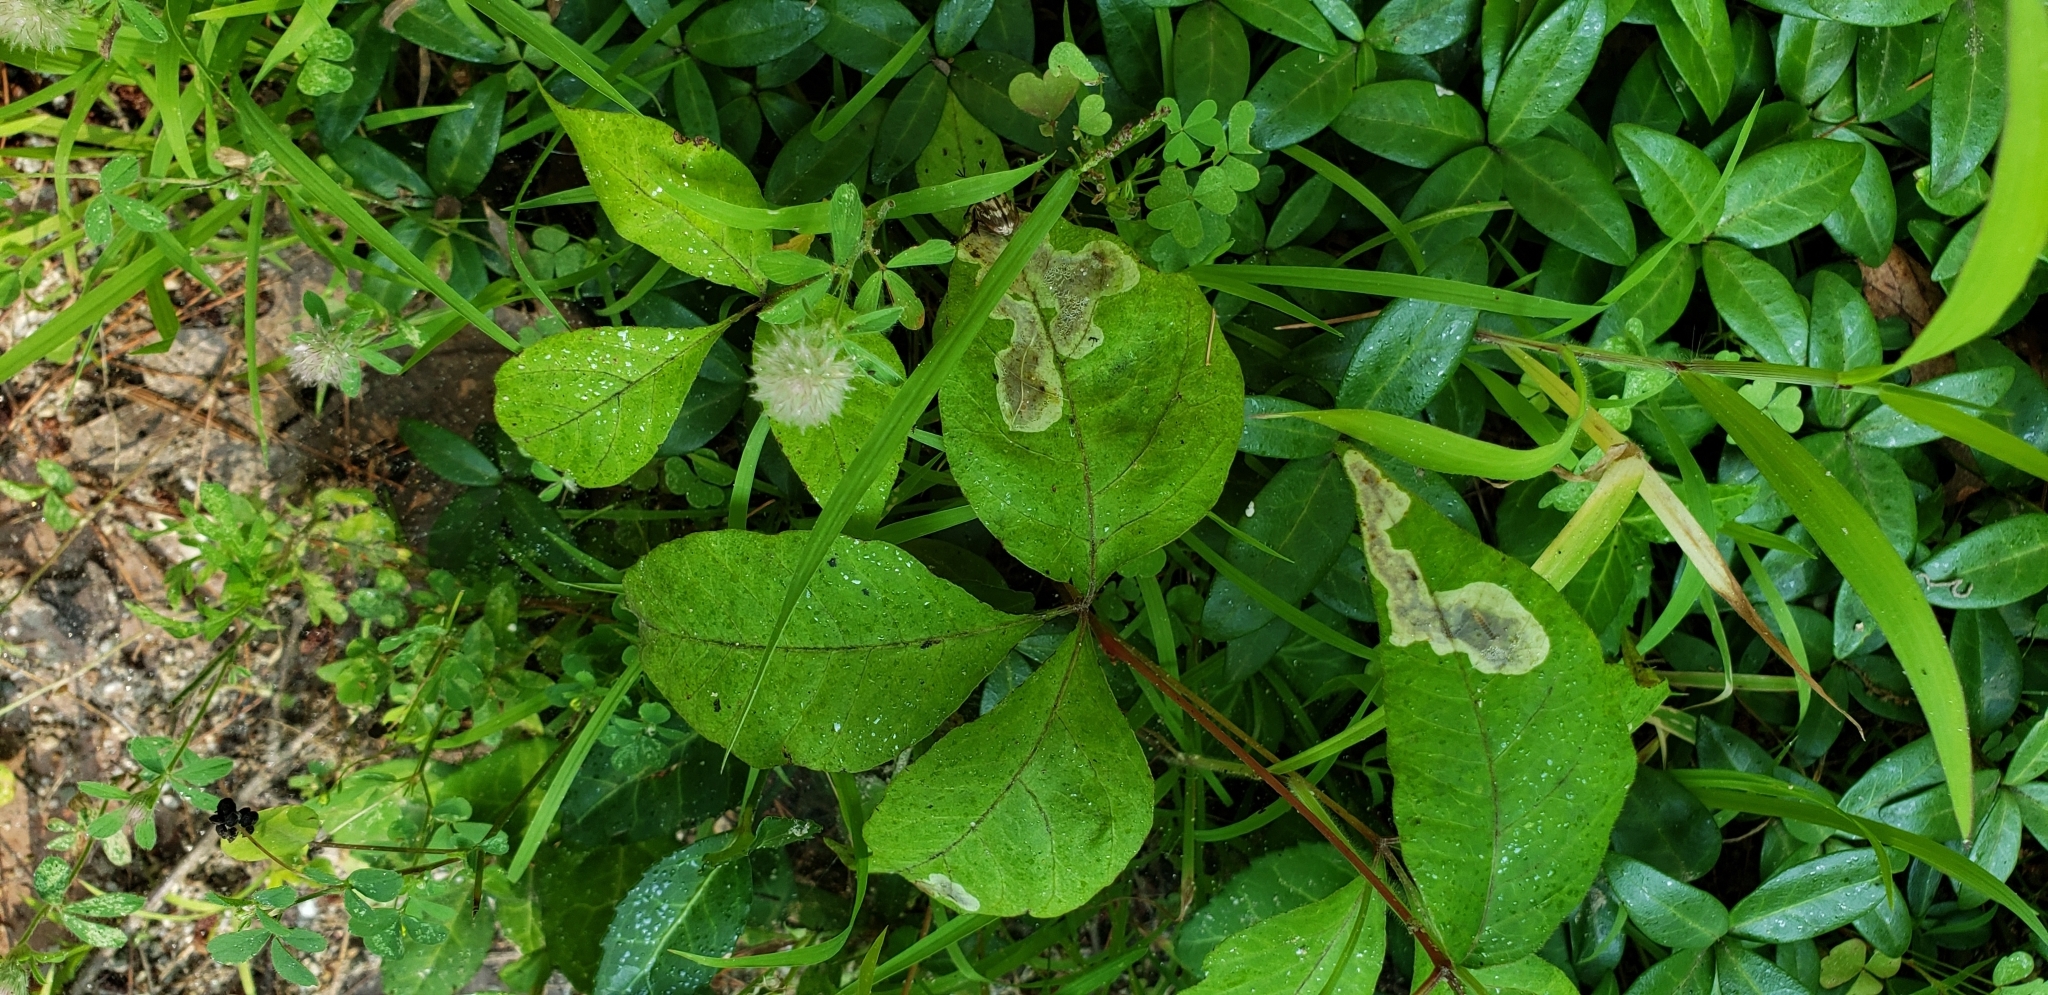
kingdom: Animalia
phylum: Arthropoda
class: Insecta
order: Lepidoptera
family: Gracillariidae
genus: Cameraria
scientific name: Cameraria guttifinitella
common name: Poison ivy leaf-miner moth
